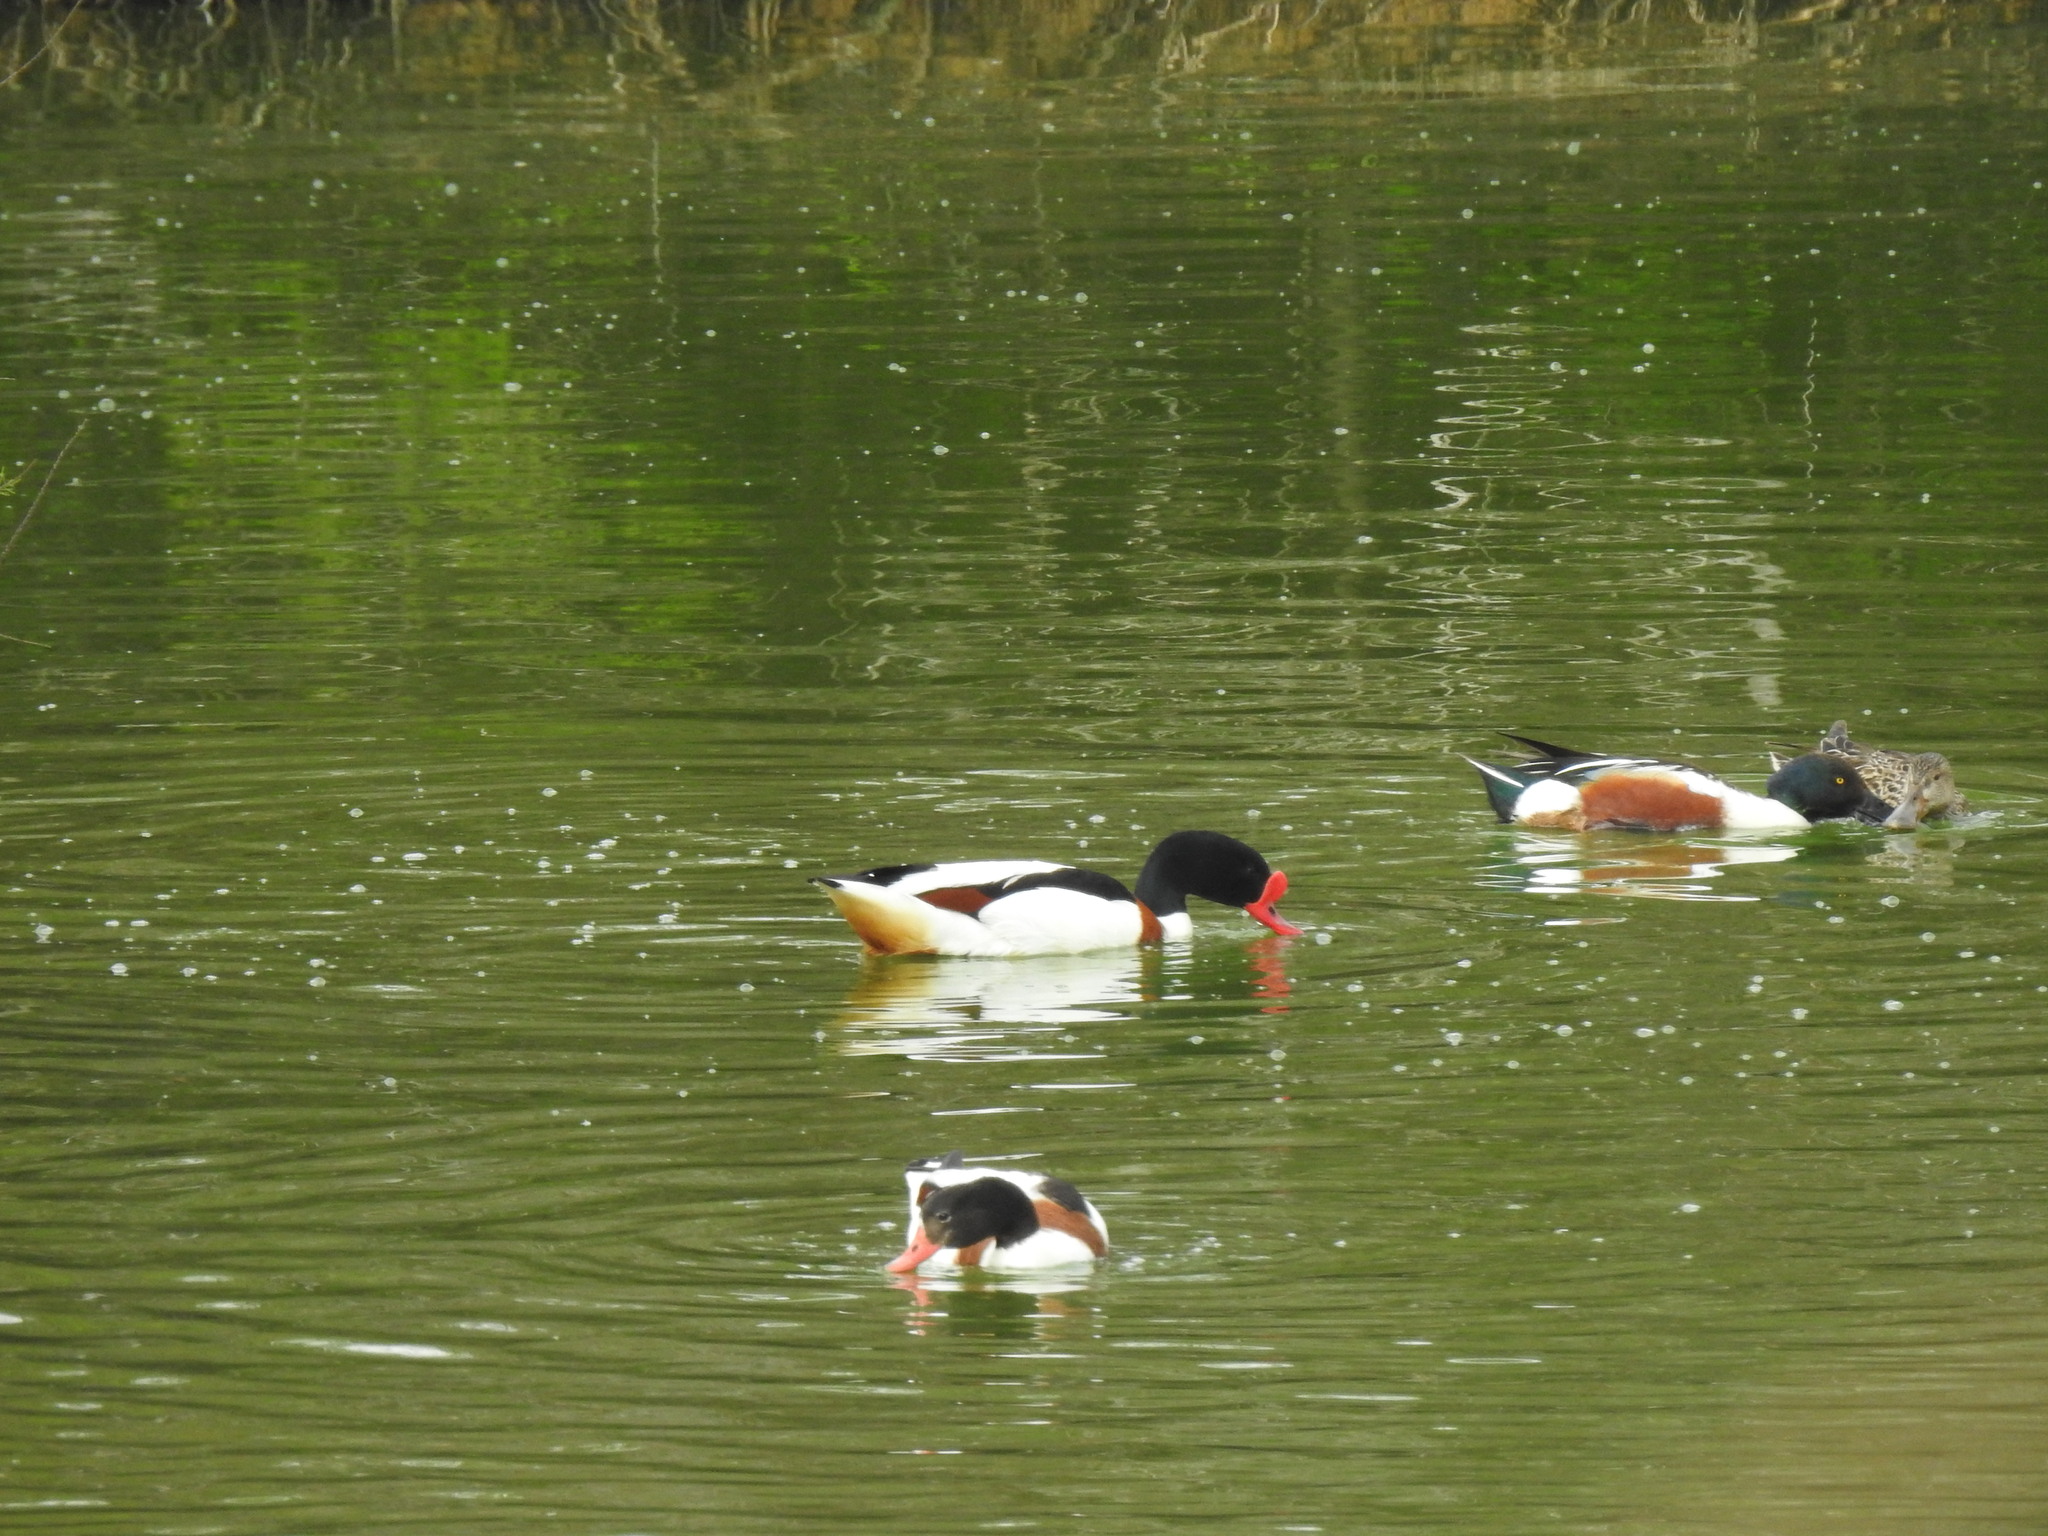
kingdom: Animalia
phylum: Chordata
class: Aves
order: Anseriformes
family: Anatidae
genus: Tadorna
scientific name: Tadorna tadorna
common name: Common shelduck
